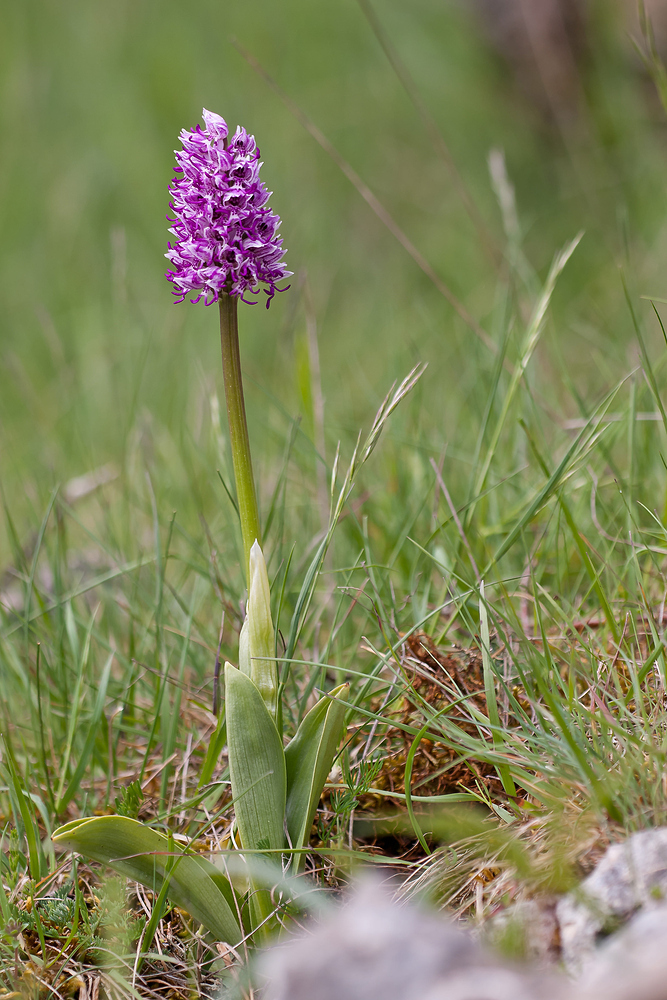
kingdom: Plantae
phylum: Tracheophyta
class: Liliopsida
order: Asparagales
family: Orchidaceae
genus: Orchis
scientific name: Orchis simia
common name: Monkey orchid
